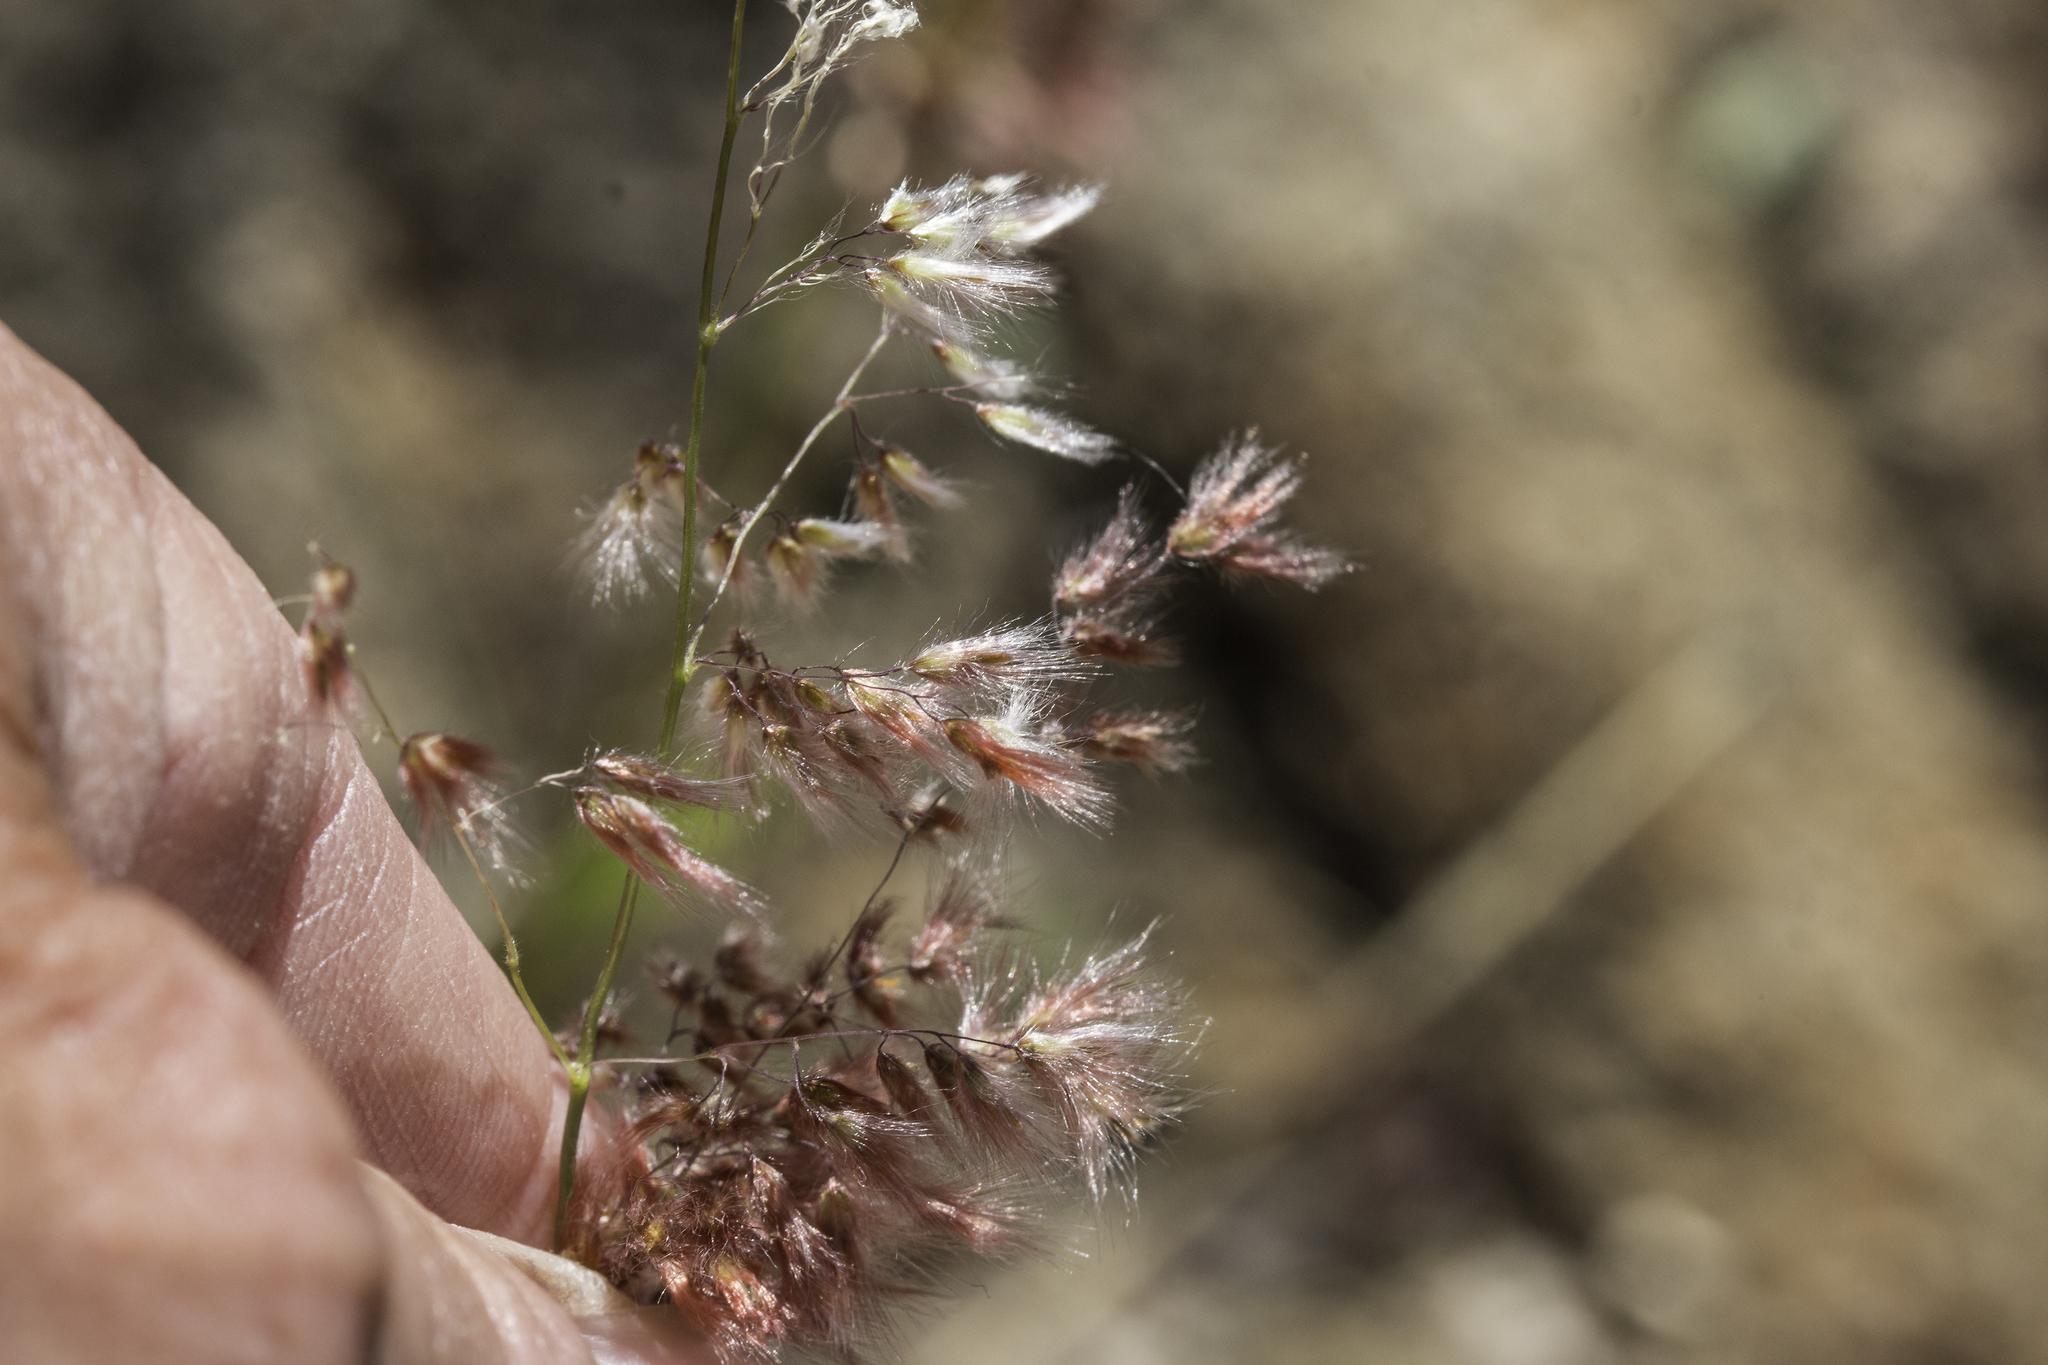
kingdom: Plantae
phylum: Tracheophyta
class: Liliopsida
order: Poales
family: Poaceae
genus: Melinis
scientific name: Melinis repens
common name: Rose natal grass
